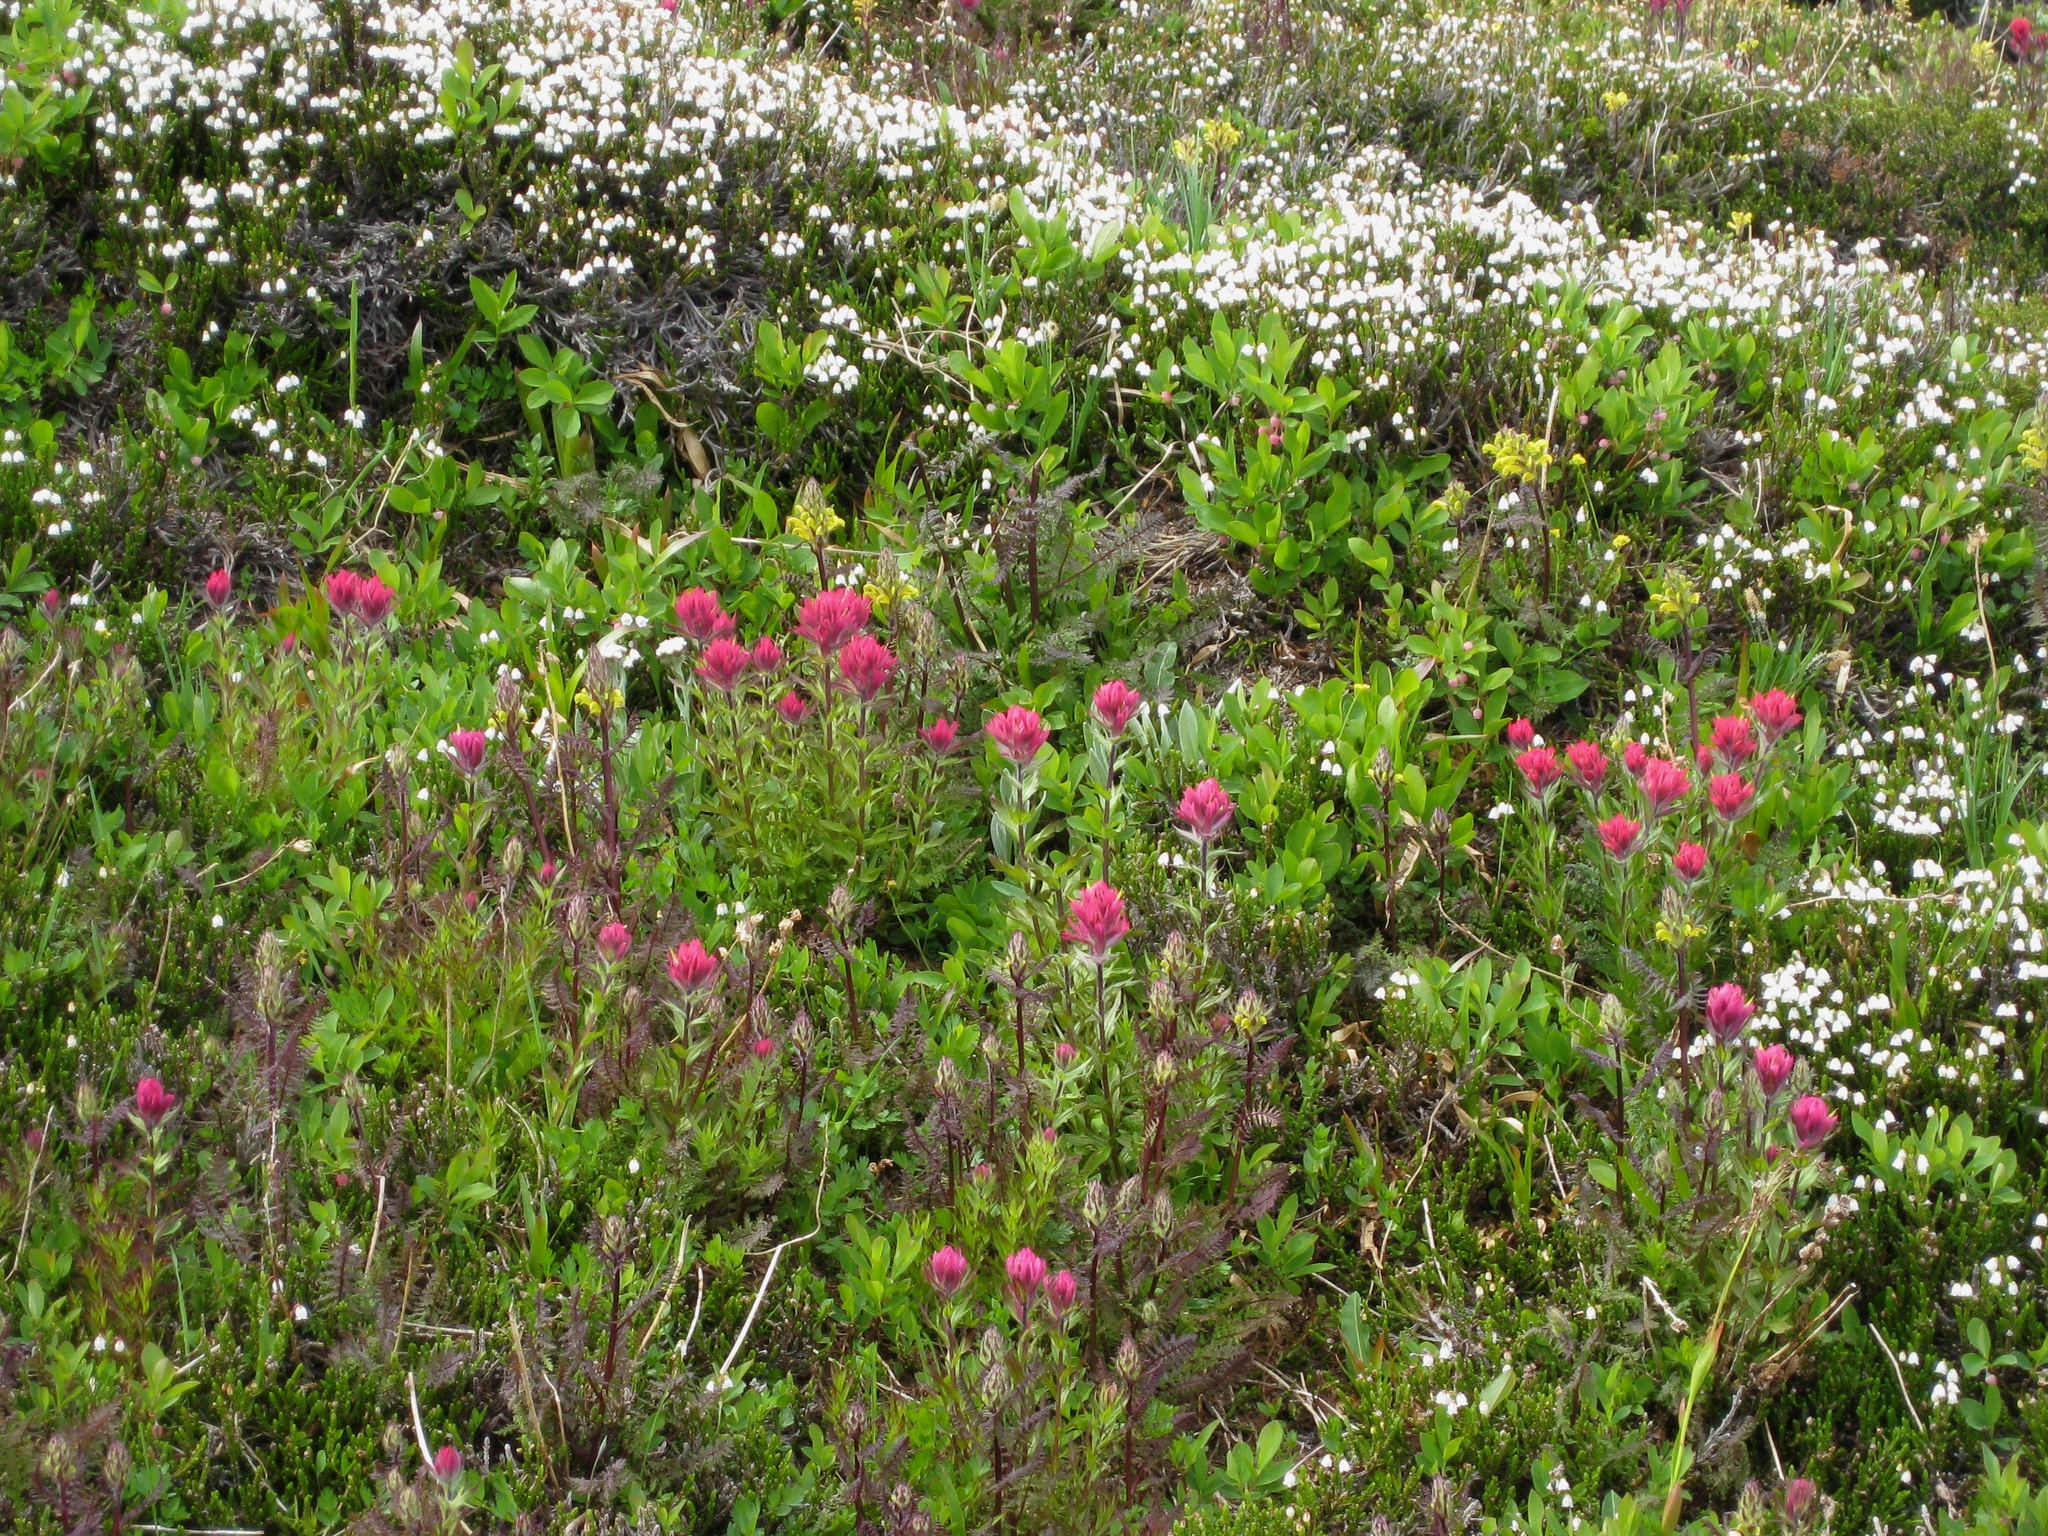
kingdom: Plantae
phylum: Tracheophyta
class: Magnoliopsida
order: Lamiales
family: Orobanchaceae
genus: Castilleja
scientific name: Castilleja parviflora
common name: Mountain paintbrush
